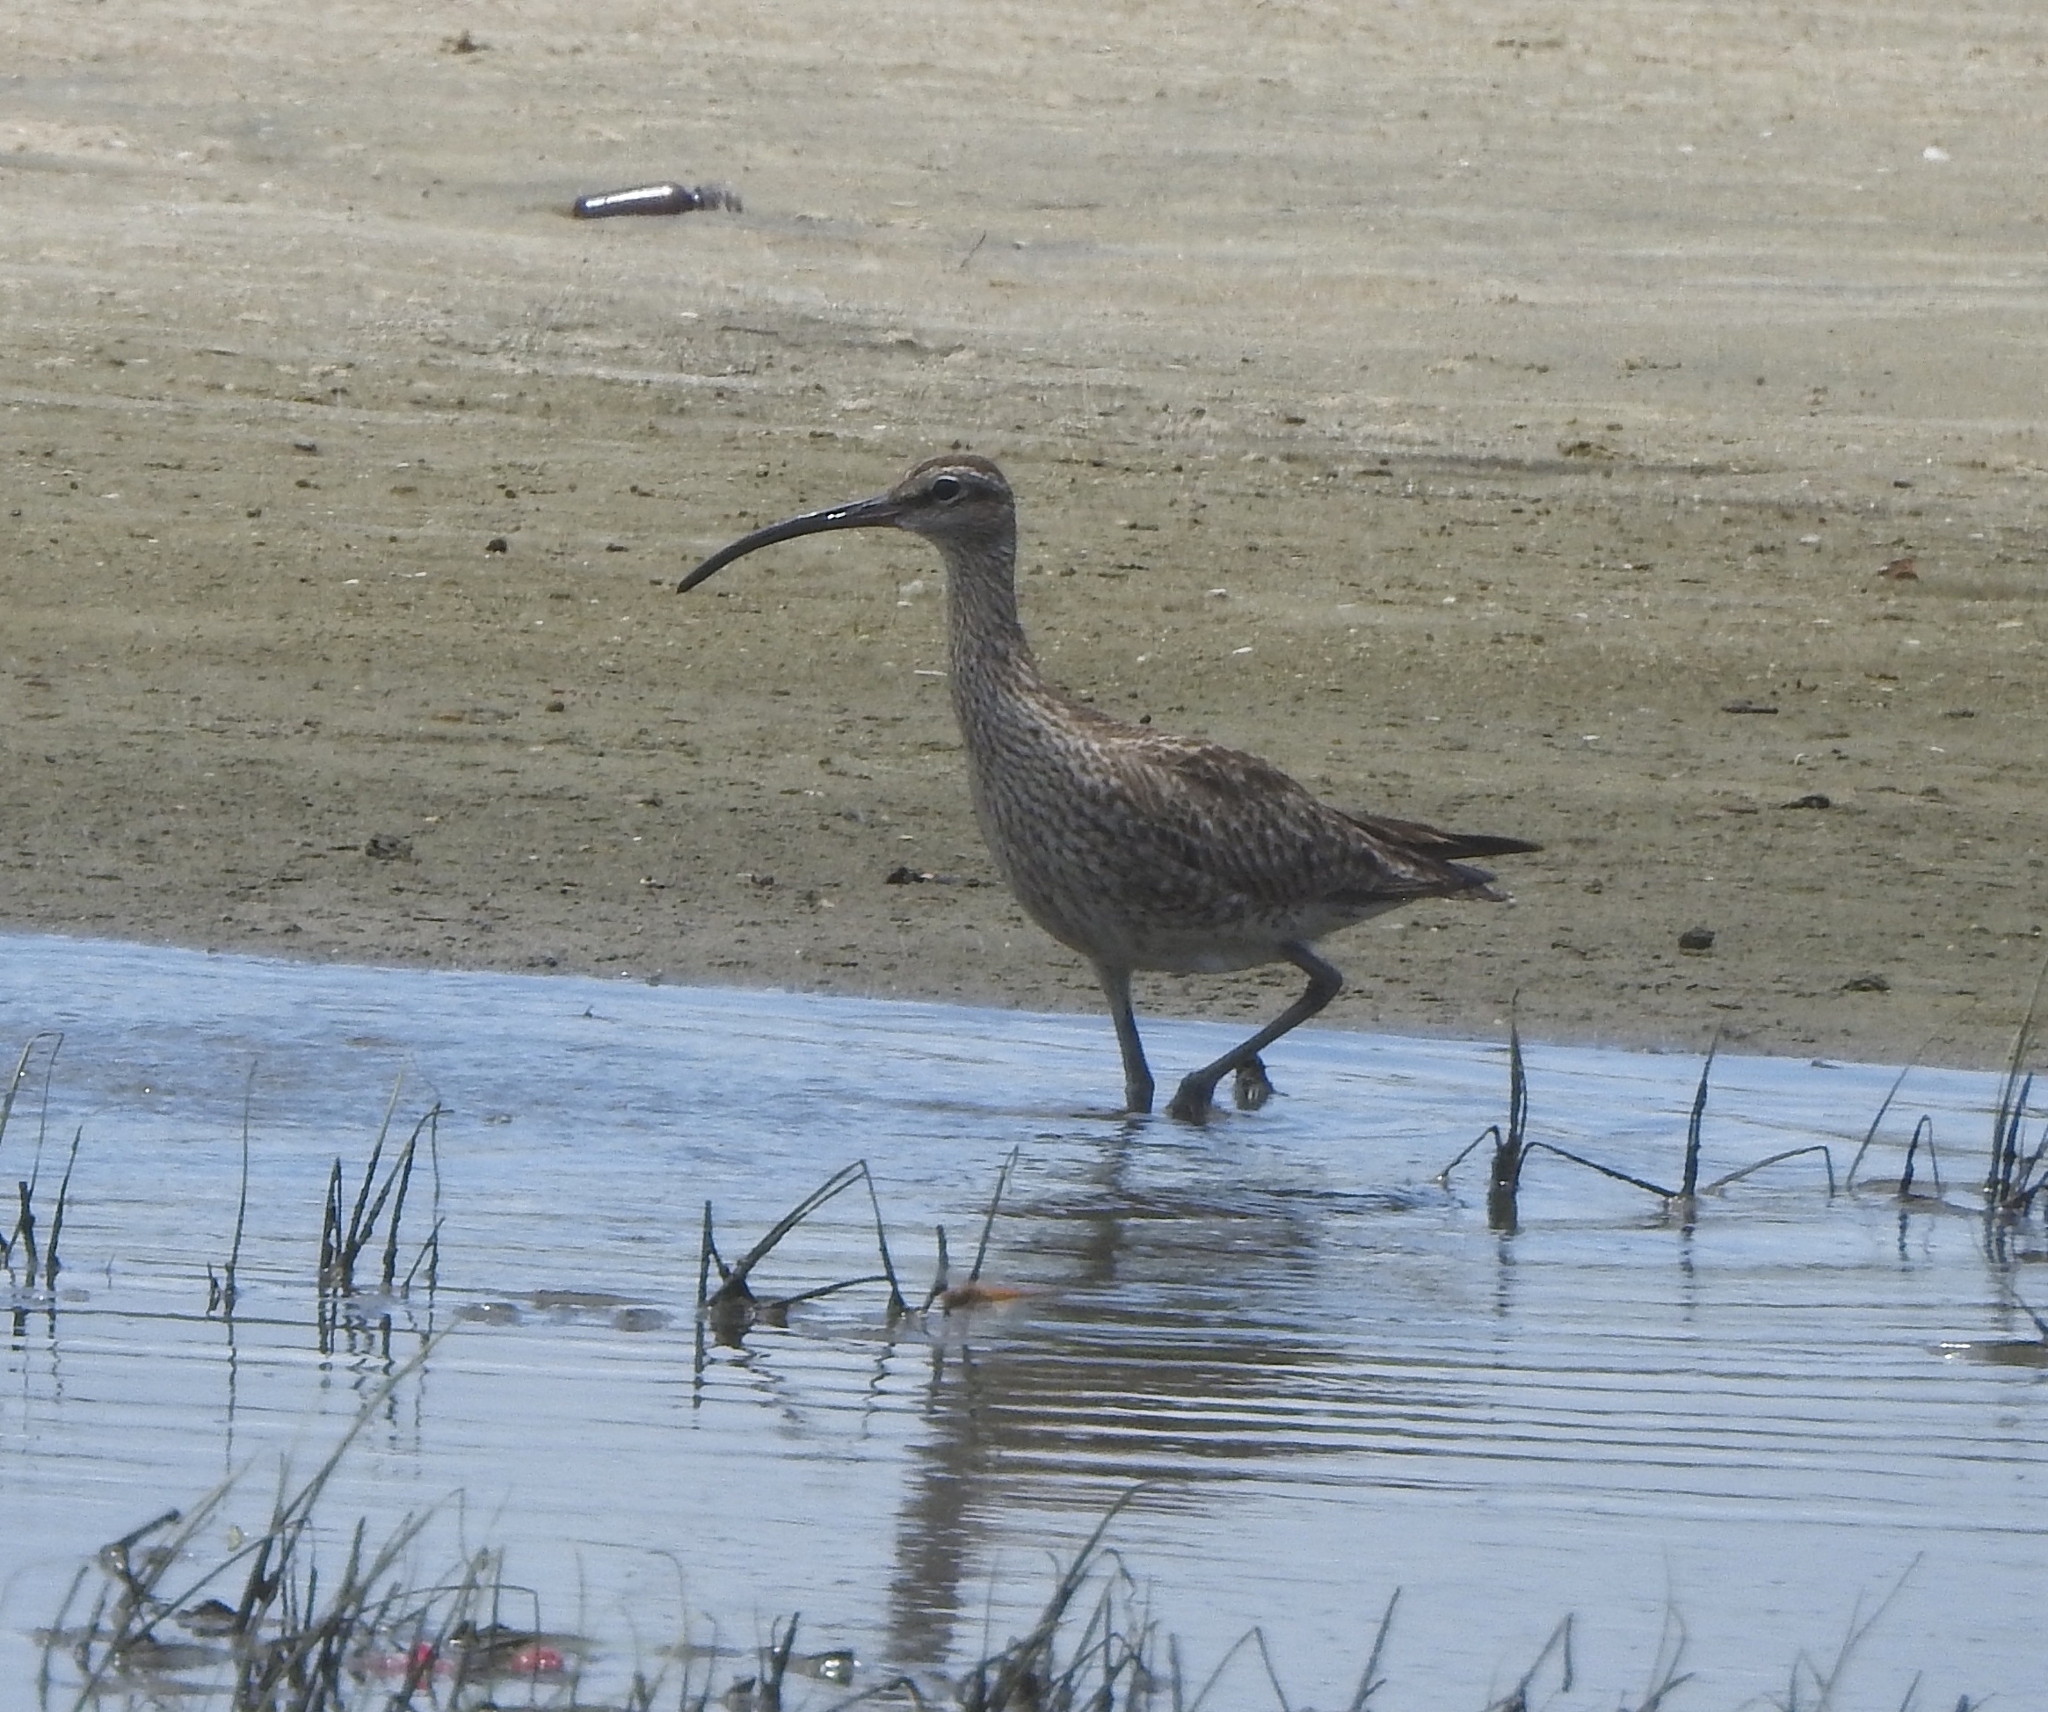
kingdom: Animalia
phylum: Chordata
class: Aves
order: Charadriiformes
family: Scolopacidae
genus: Numenius
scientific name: Numenius phaeopus
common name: Whimbrel
